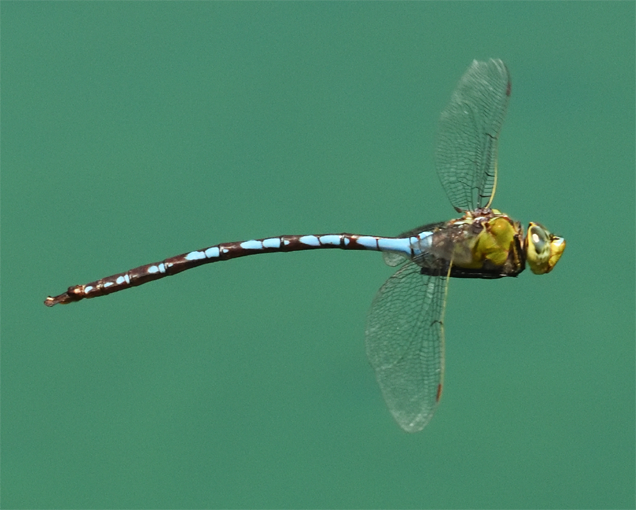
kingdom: Animalia
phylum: Arthropoda
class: Insecta
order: Odonata
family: Aeshnidae
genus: Anax
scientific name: Anax walsinghami
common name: Giant darner
